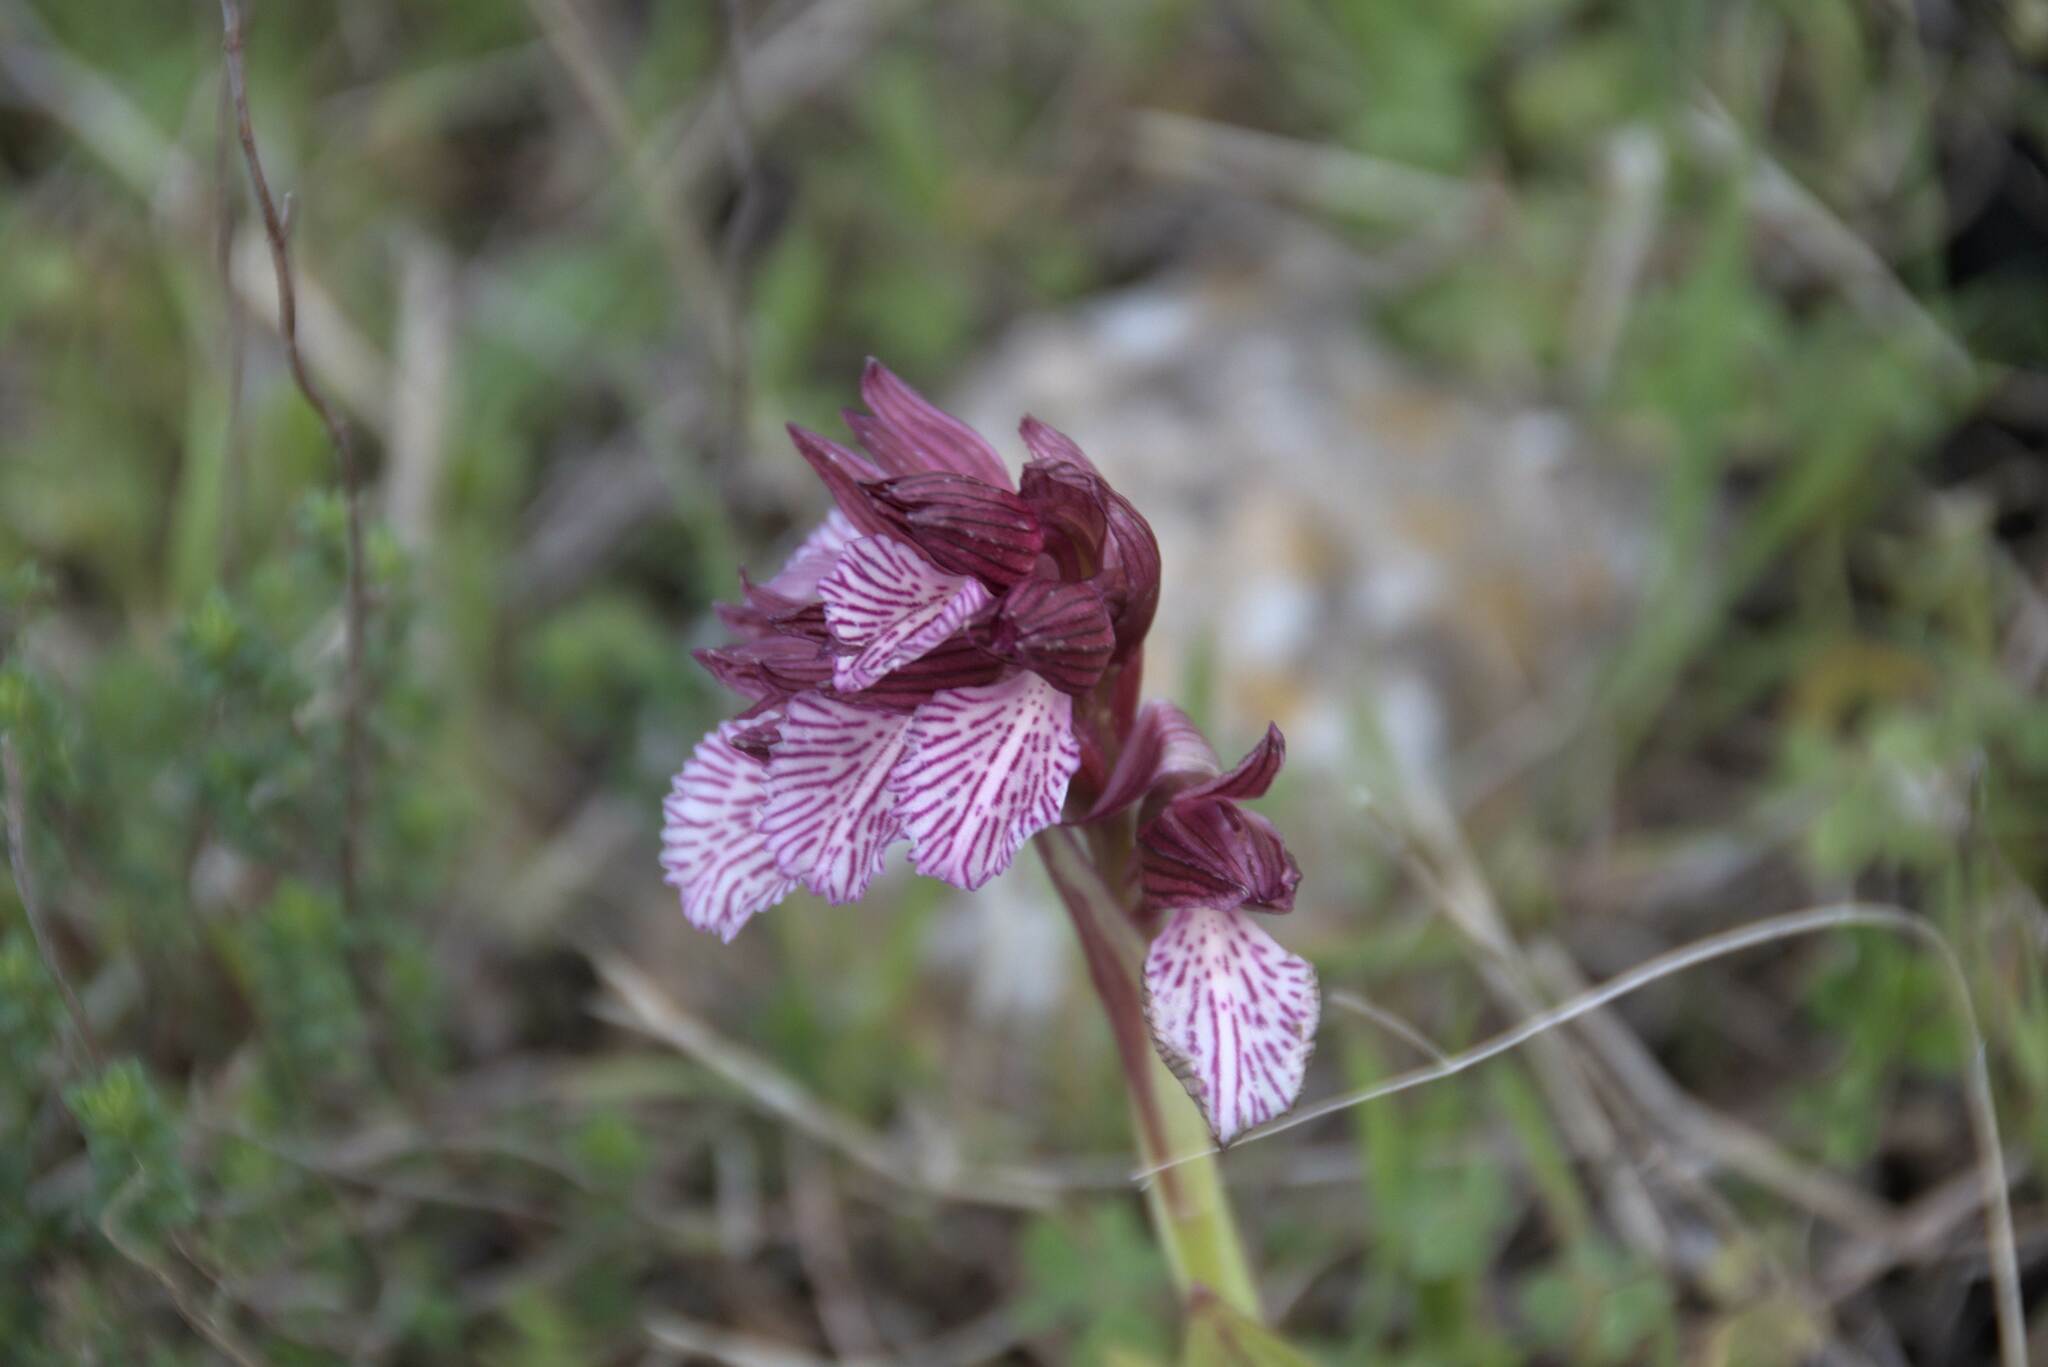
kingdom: Plantae
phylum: Tracheophyta
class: Liliopsida
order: Asparagales
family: Orchidaceae
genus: Anacamptis
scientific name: Anacamptis papilionacea
